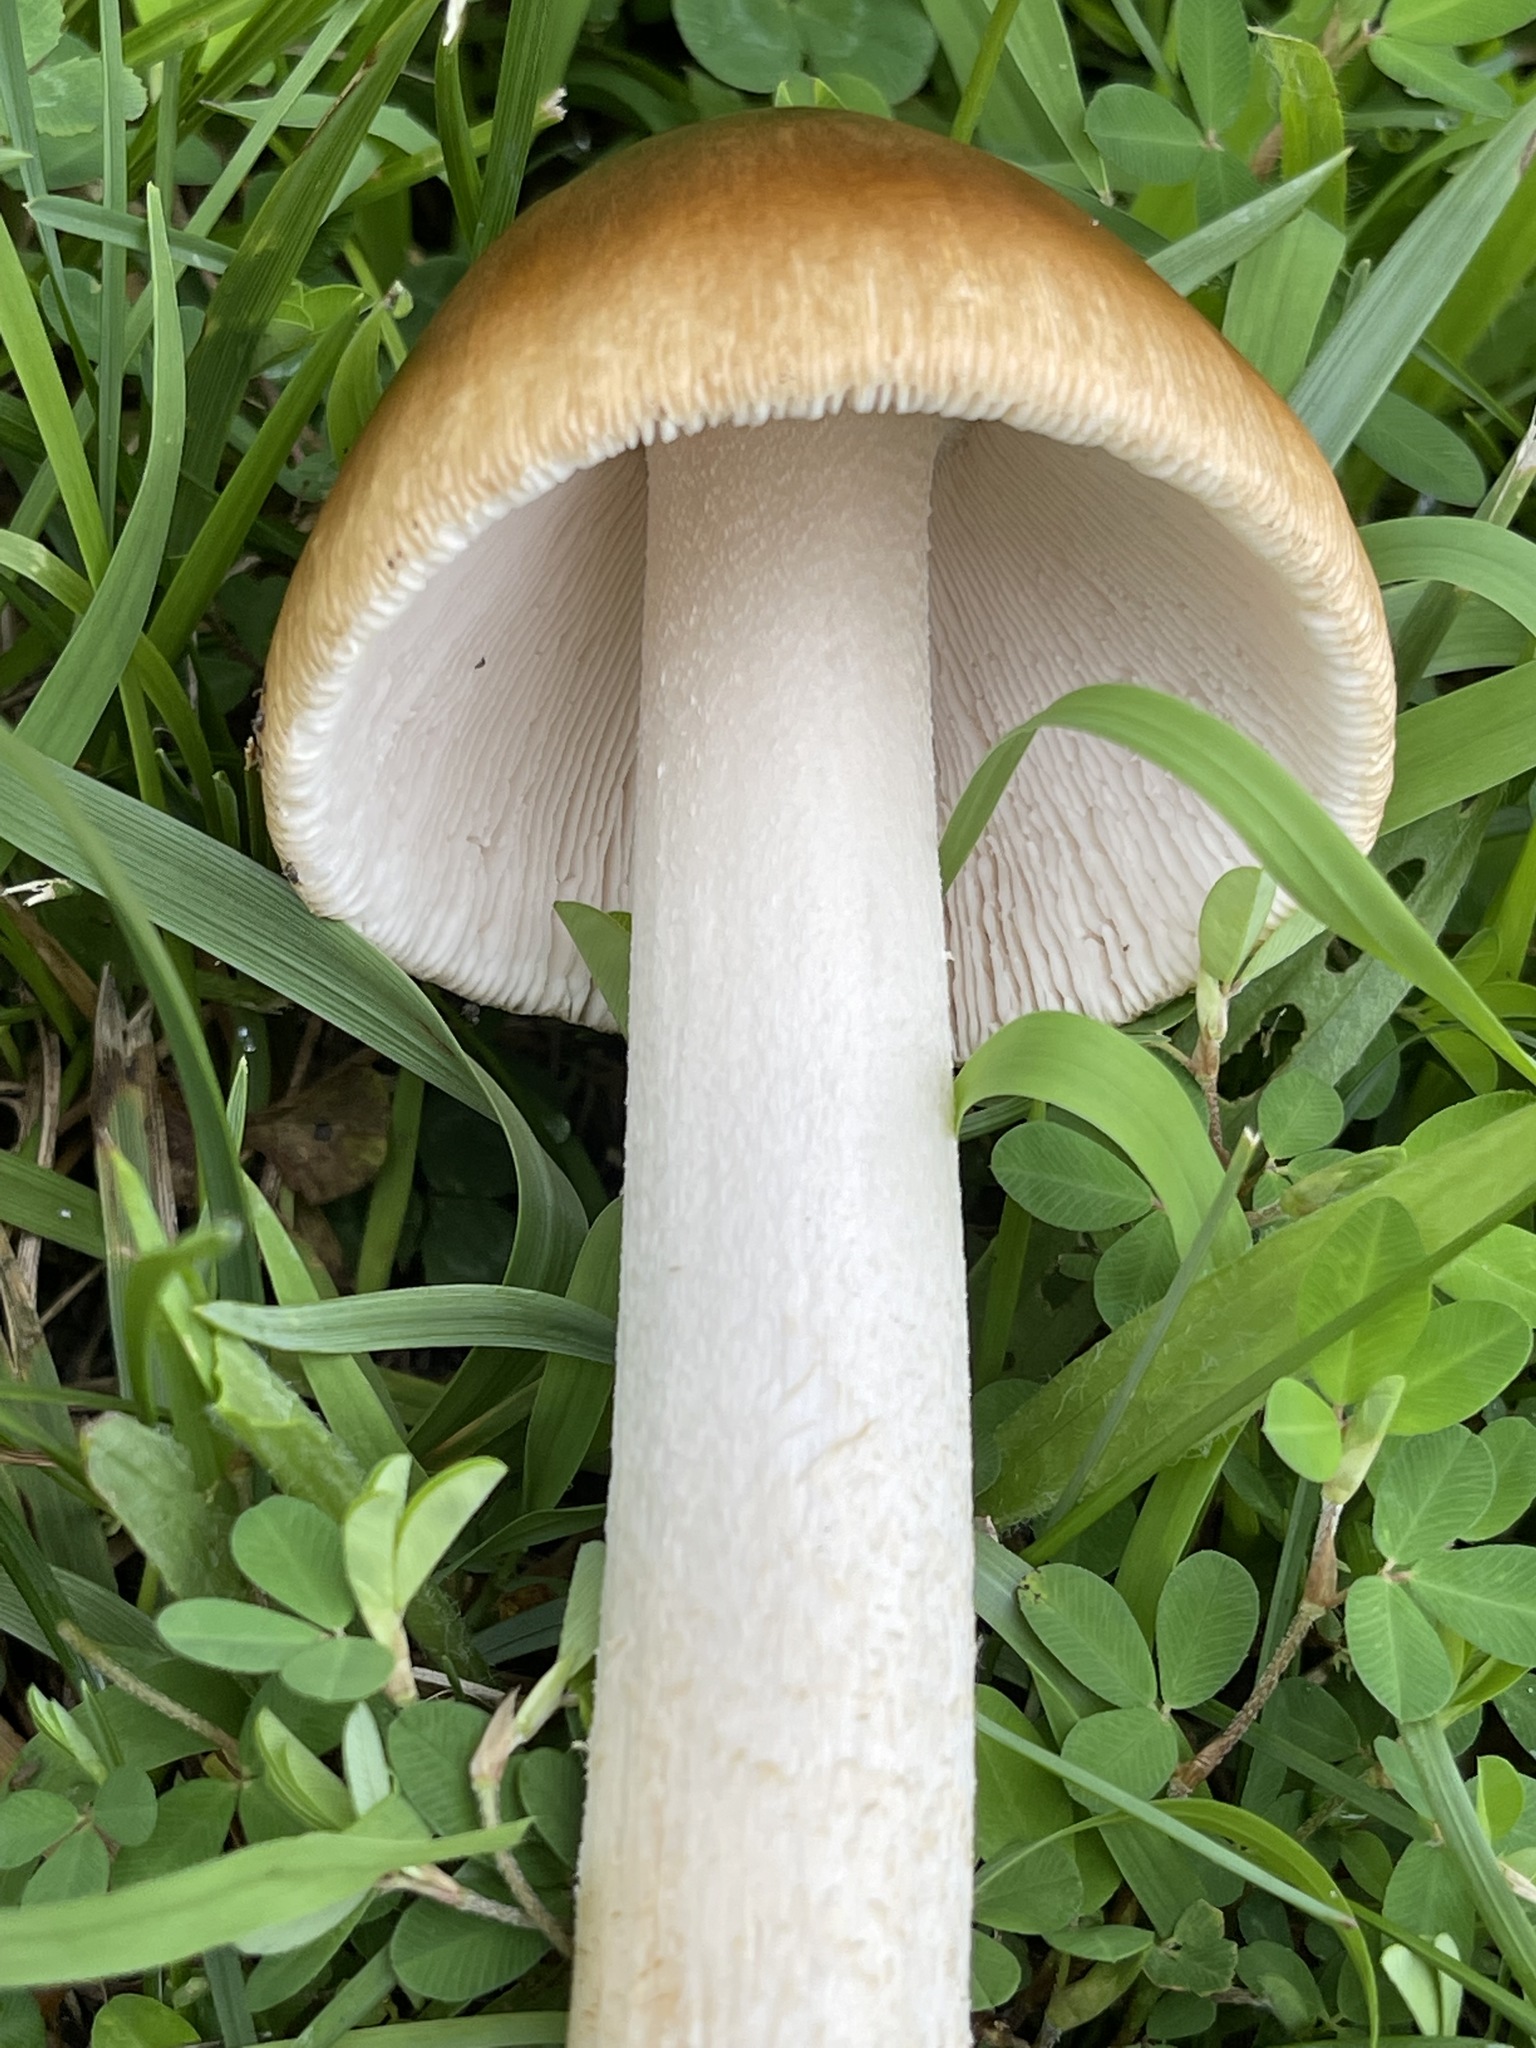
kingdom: Fungi
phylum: Basidiomycota
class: Agaricomycetes
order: Agaricales
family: Amanitaceae
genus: Amanita
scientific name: Amanita fulva
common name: Tawny grisette
